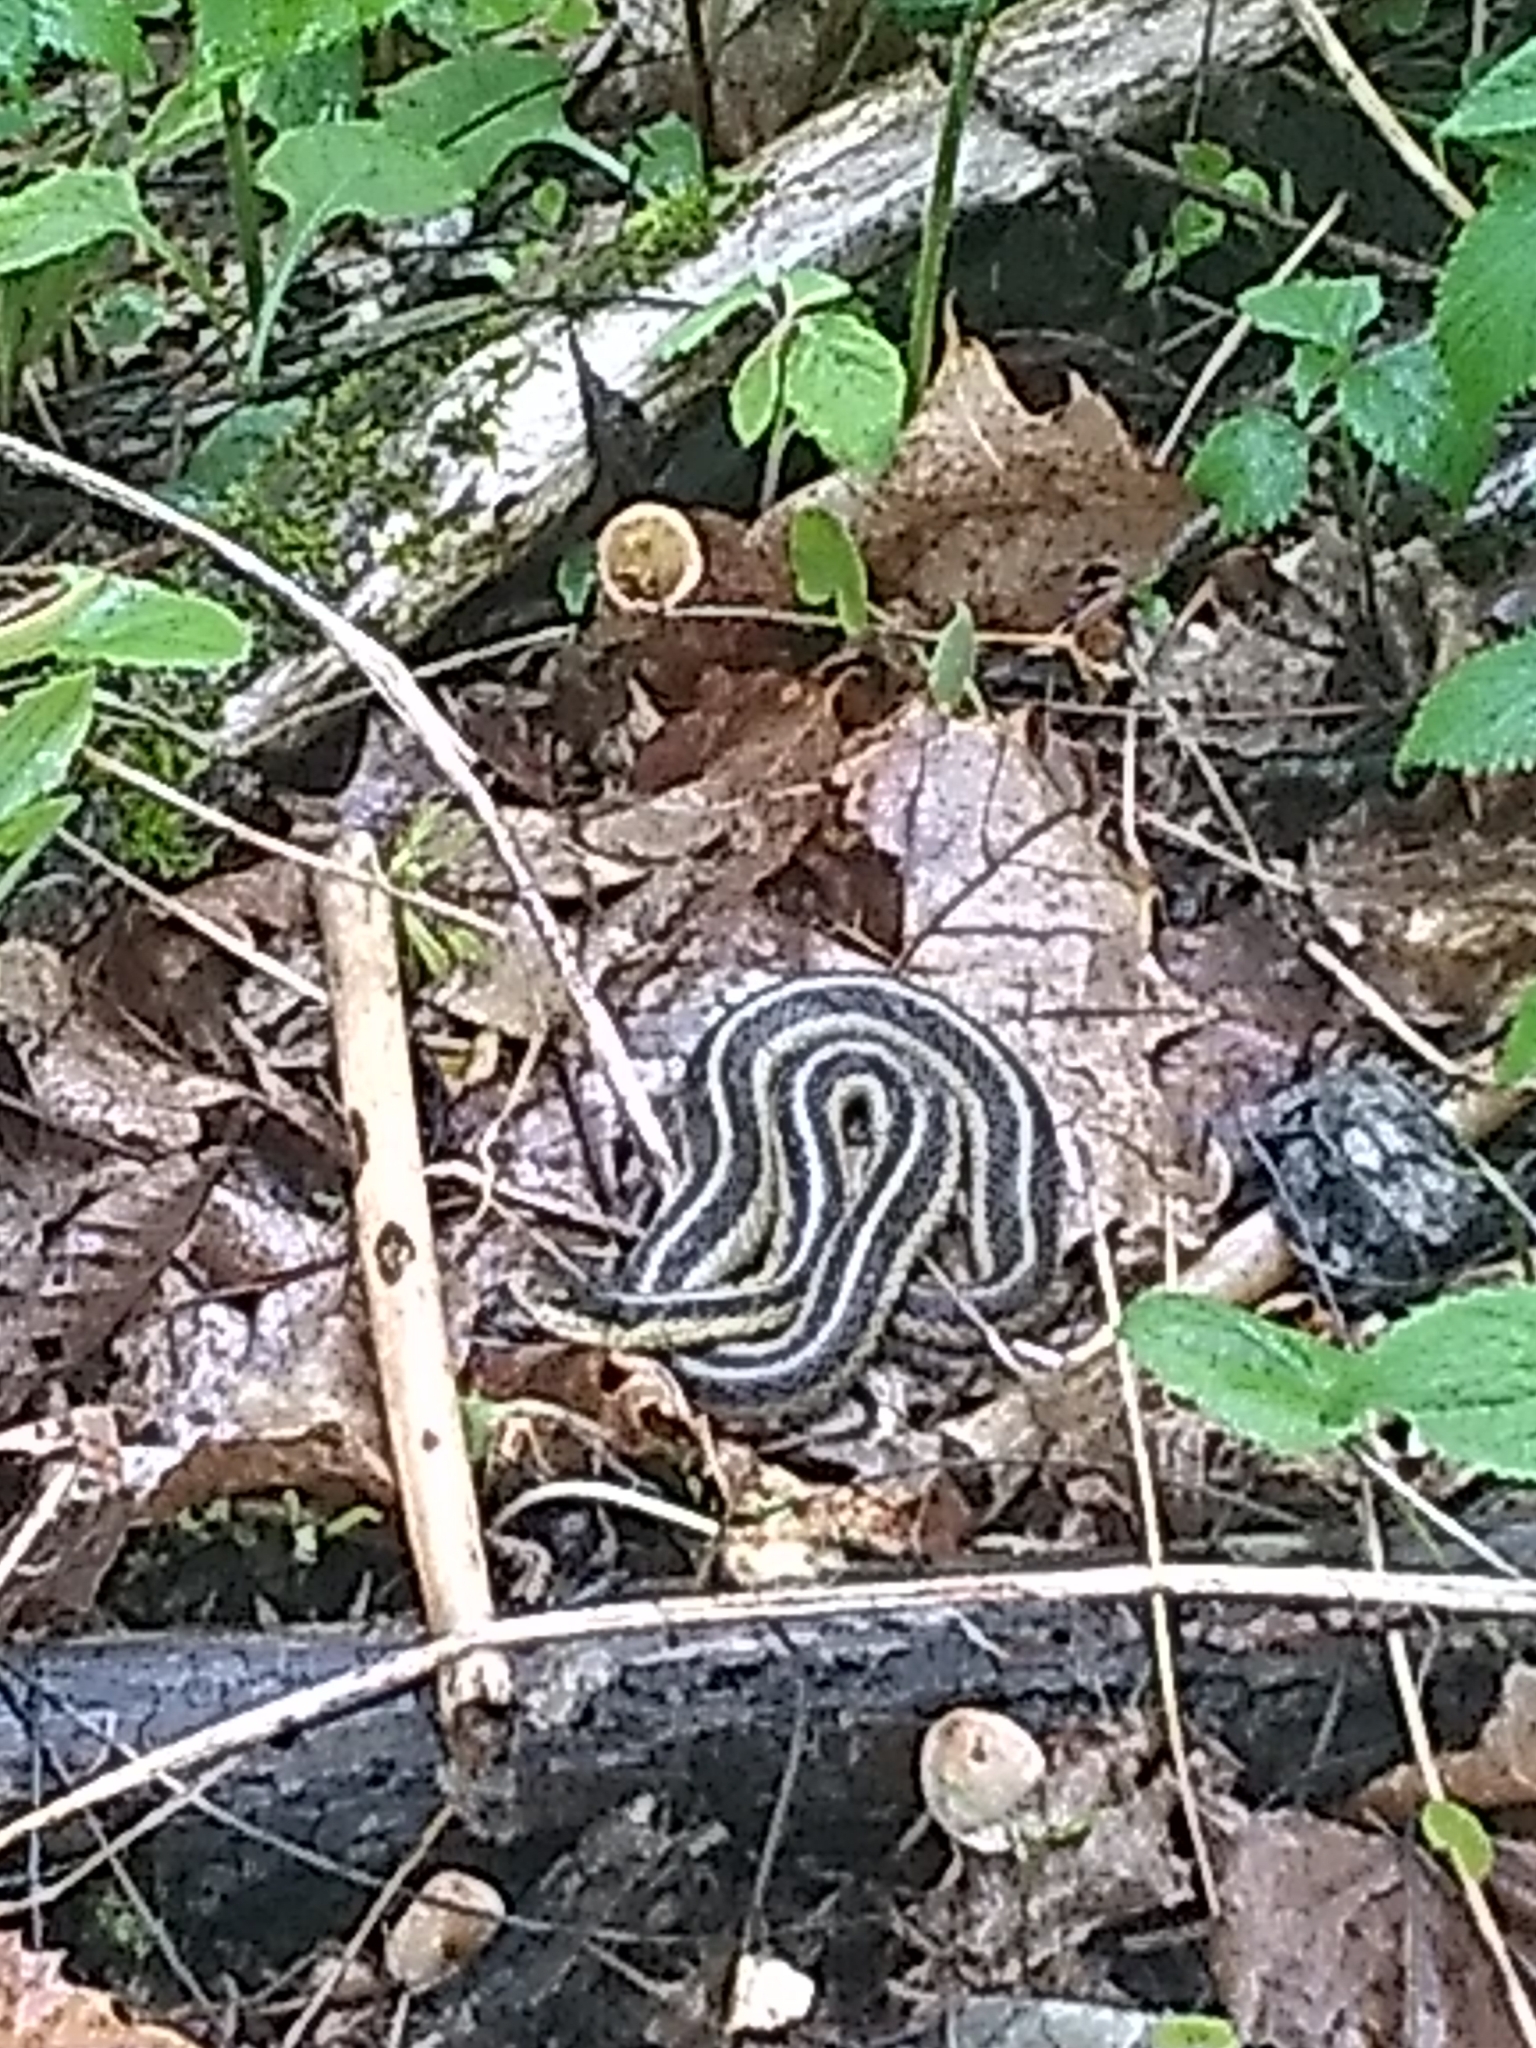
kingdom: Animalia
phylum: Chordata
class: Squamata
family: Colubridae
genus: Thamnophis
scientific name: Thamnophis sirtalis
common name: Common garter snake
